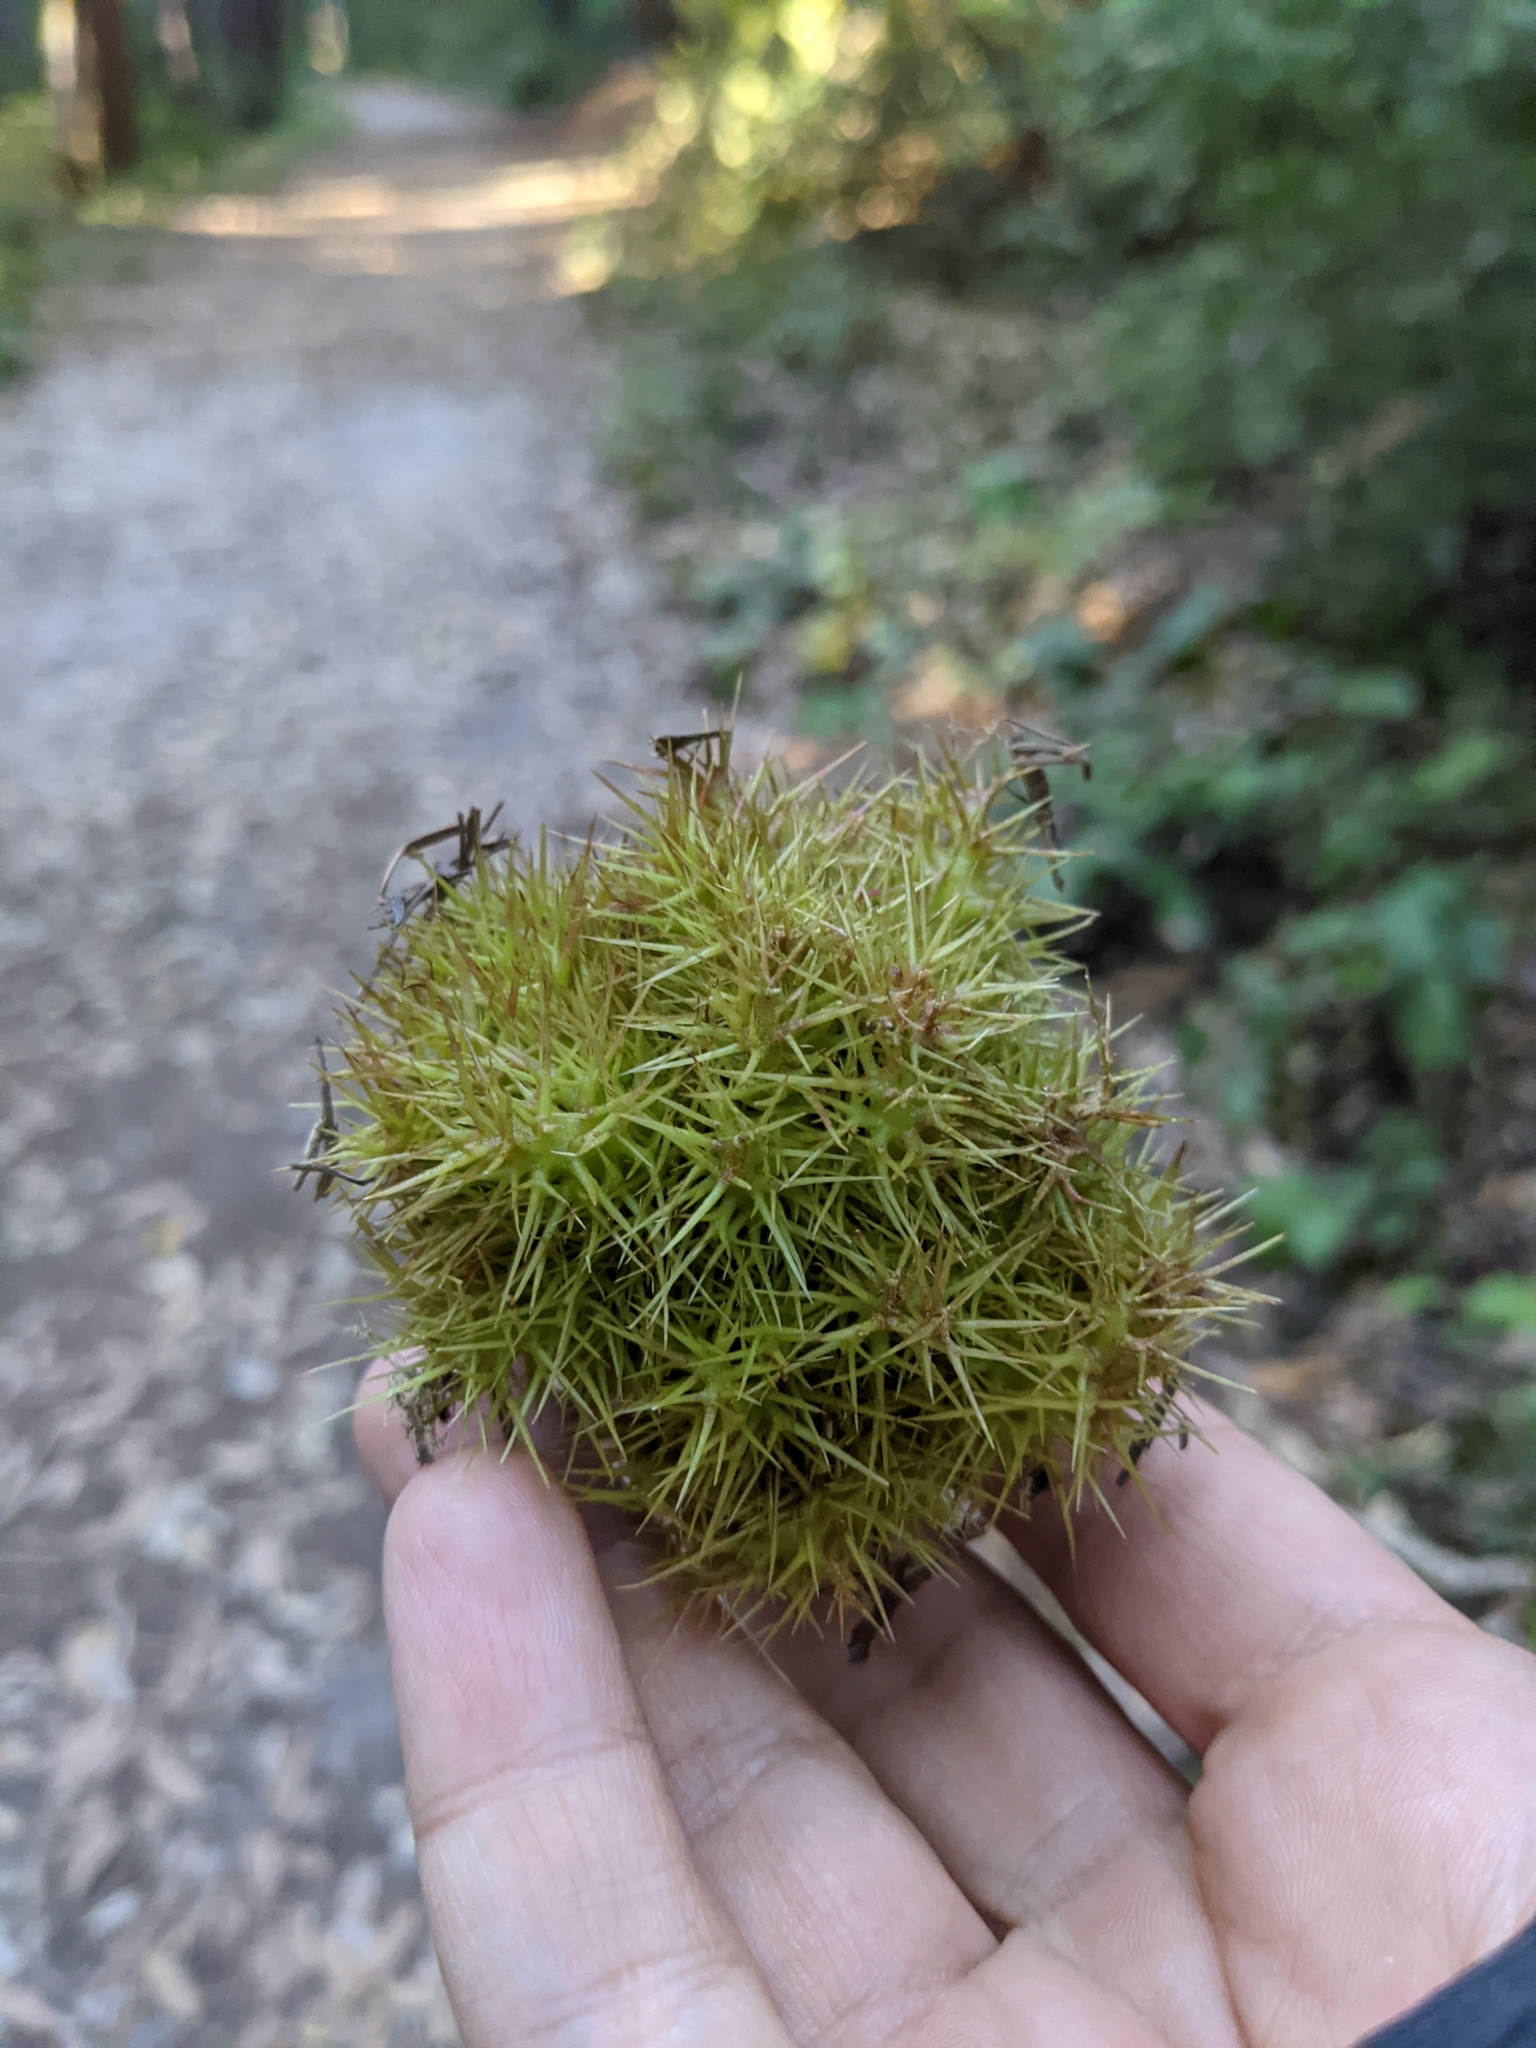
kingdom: Plantae
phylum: Tracheophyta
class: Magnoliopsida
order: Fagales
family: Fagaceae
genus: Chrysolepis
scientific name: Chrysolepis chrysophylla
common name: Giant chinquapin
